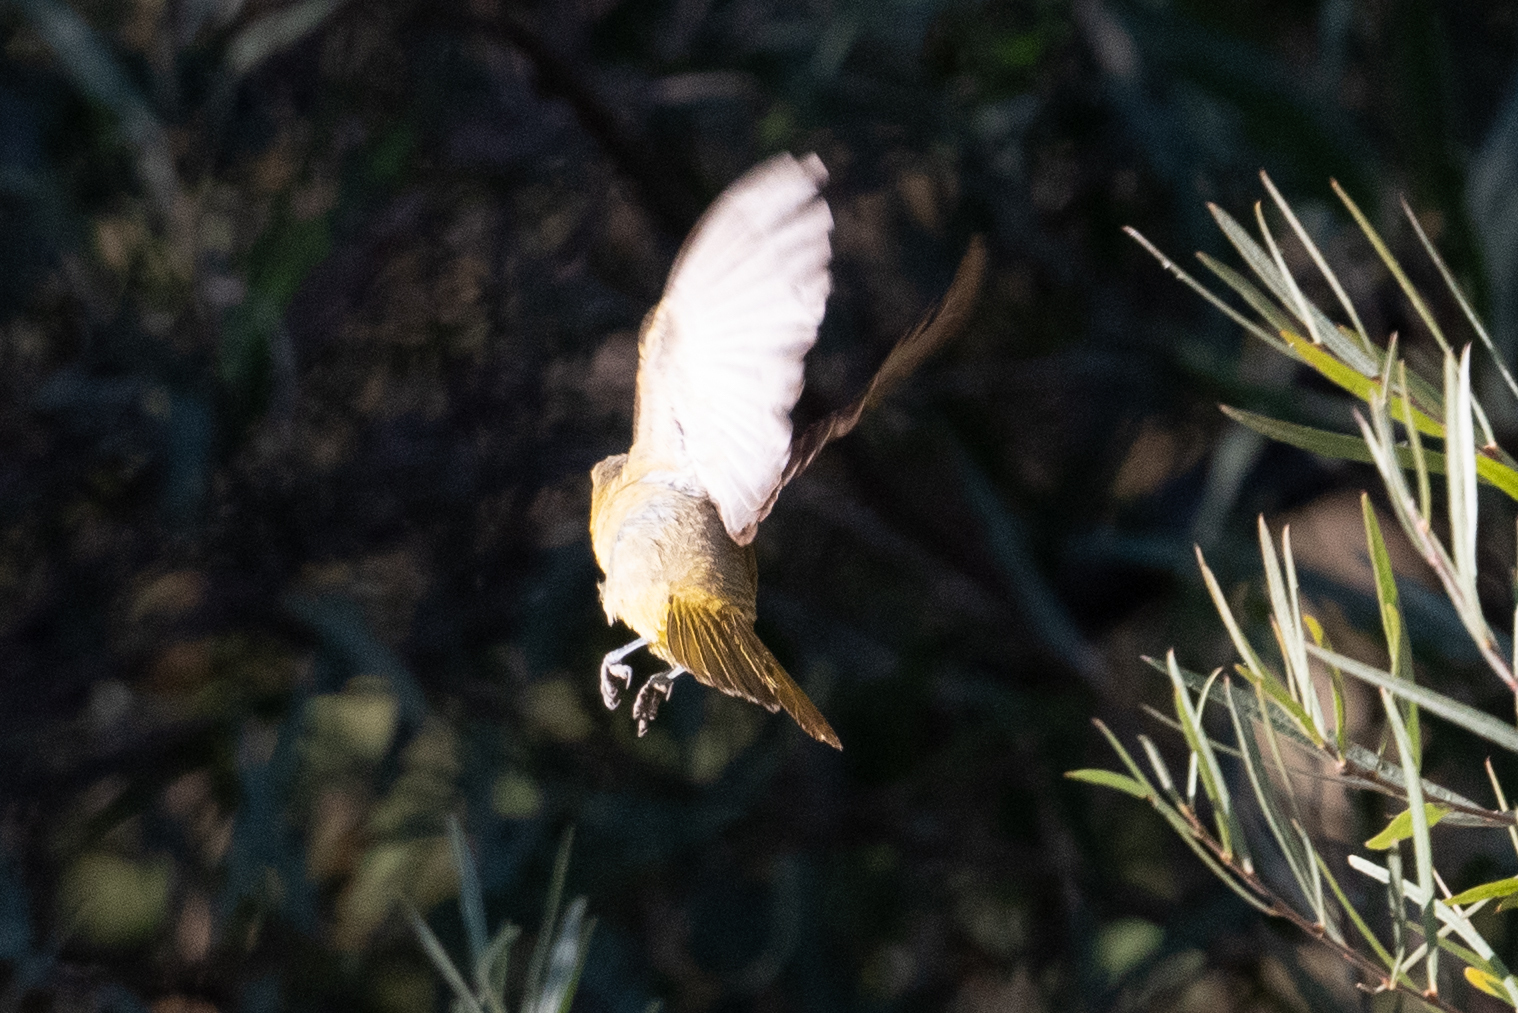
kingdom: Animalia
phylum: Chordata
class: Aves
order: Passeriformes
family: Icteridae
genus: Icterus
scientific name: Icterus bullockii
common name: Bullock's oriole
